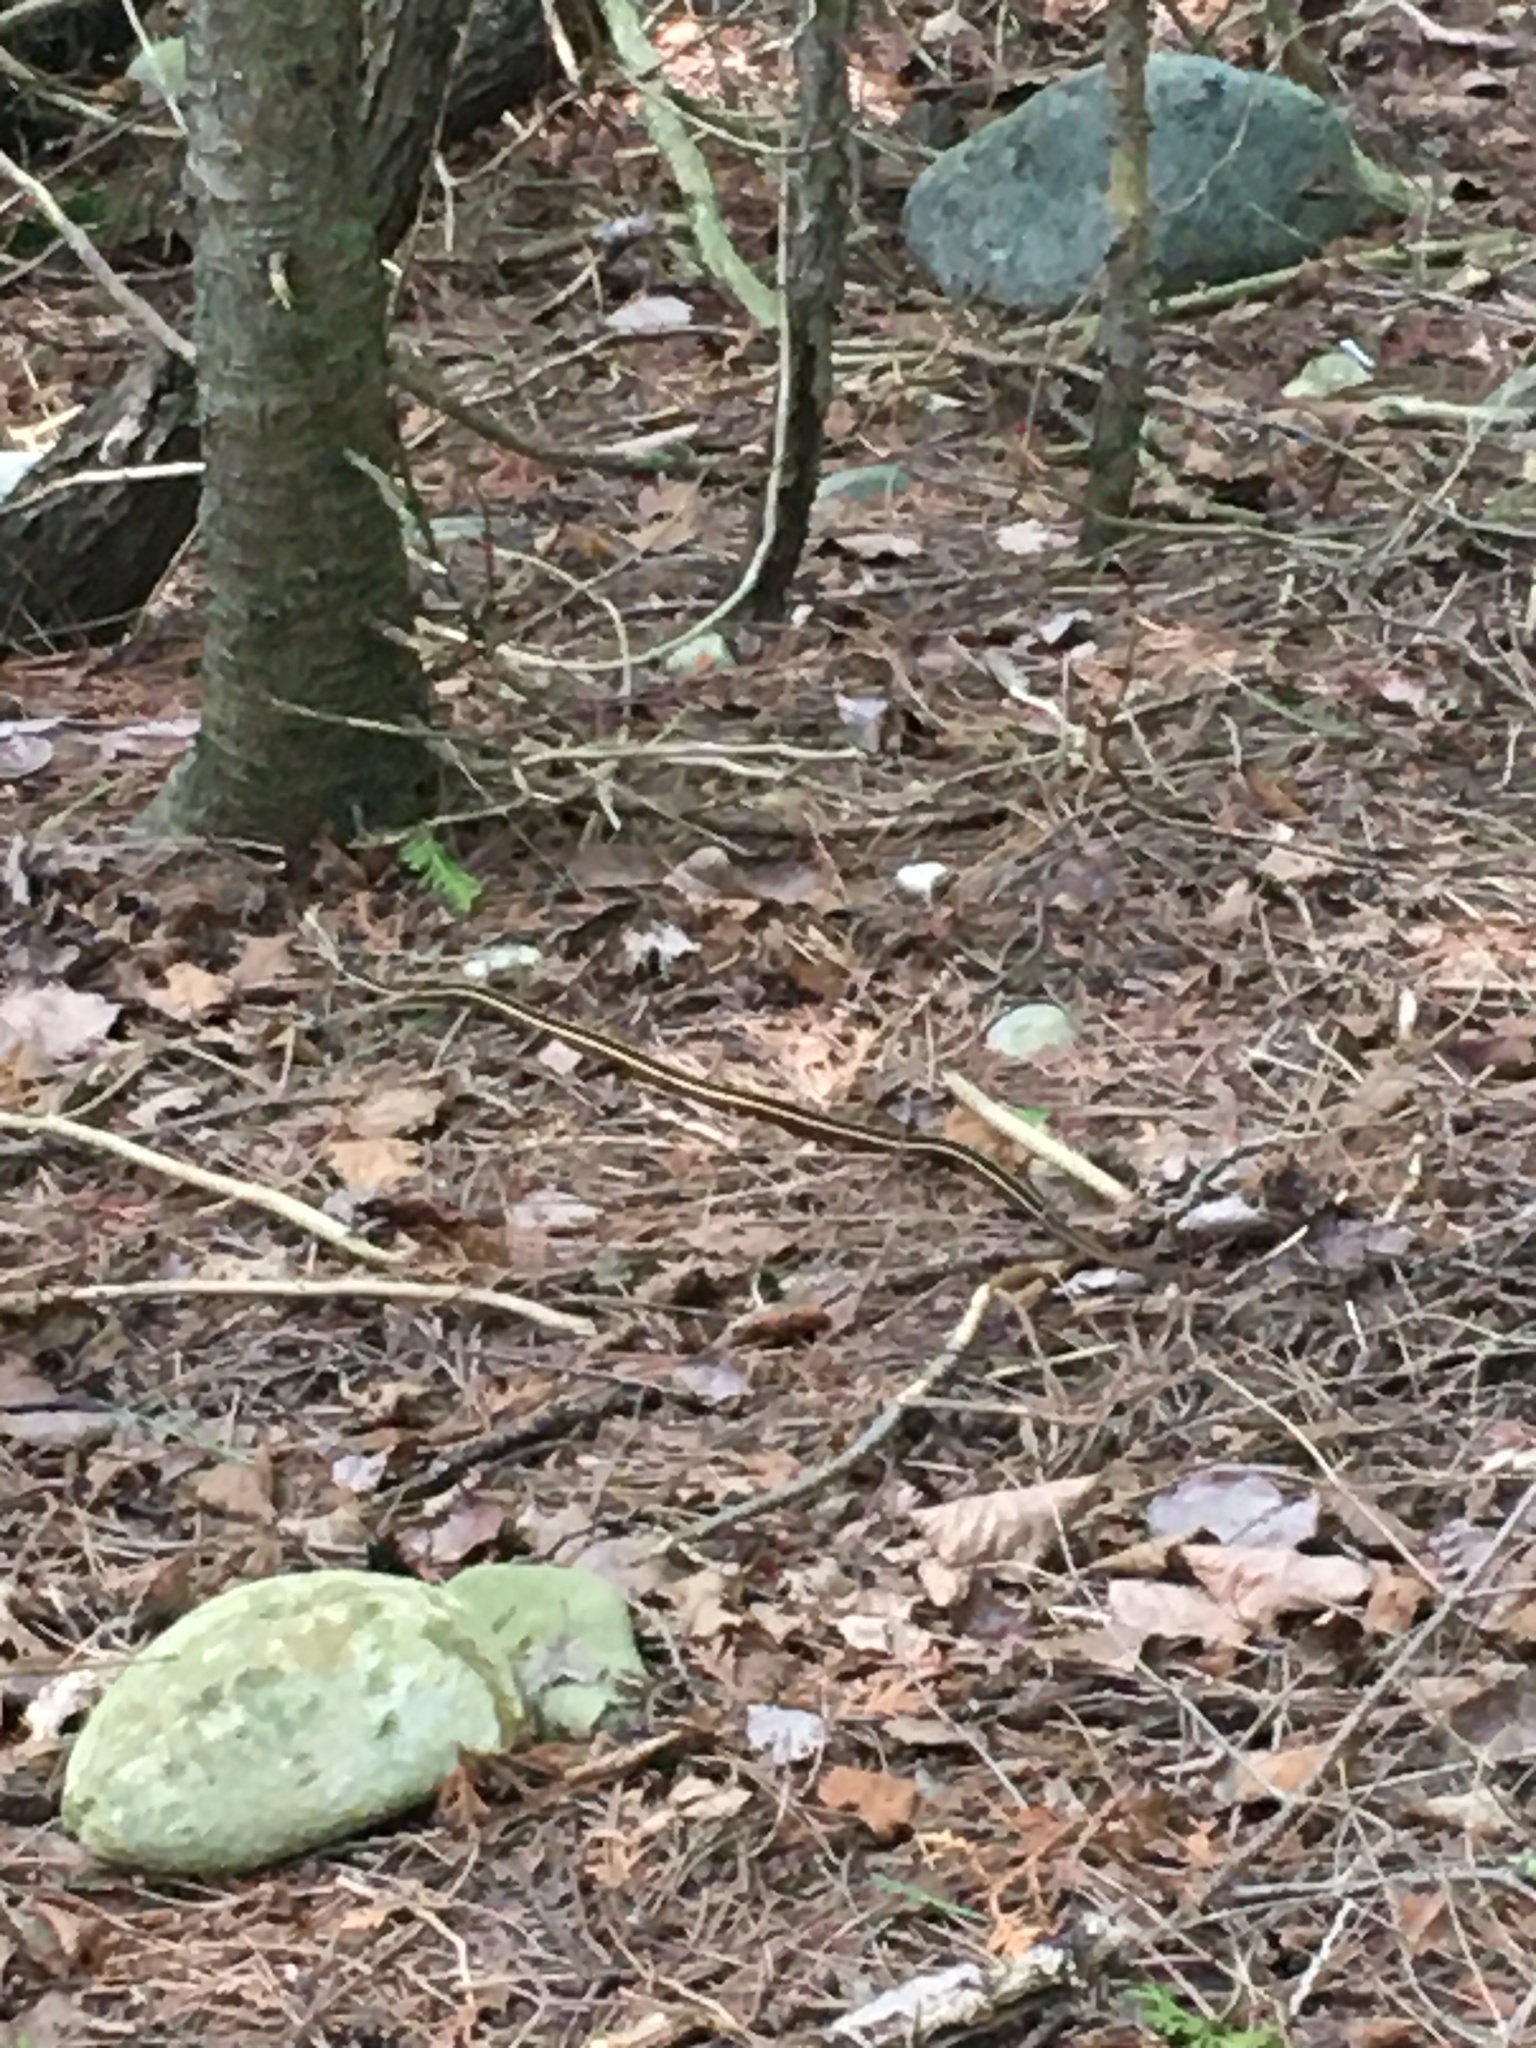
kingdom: Animalia
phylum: Chordata
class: Squamata
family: Colubridae
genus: Thamnophis
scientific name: Thamnophis saurita
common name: Eastern ribbonsnake
